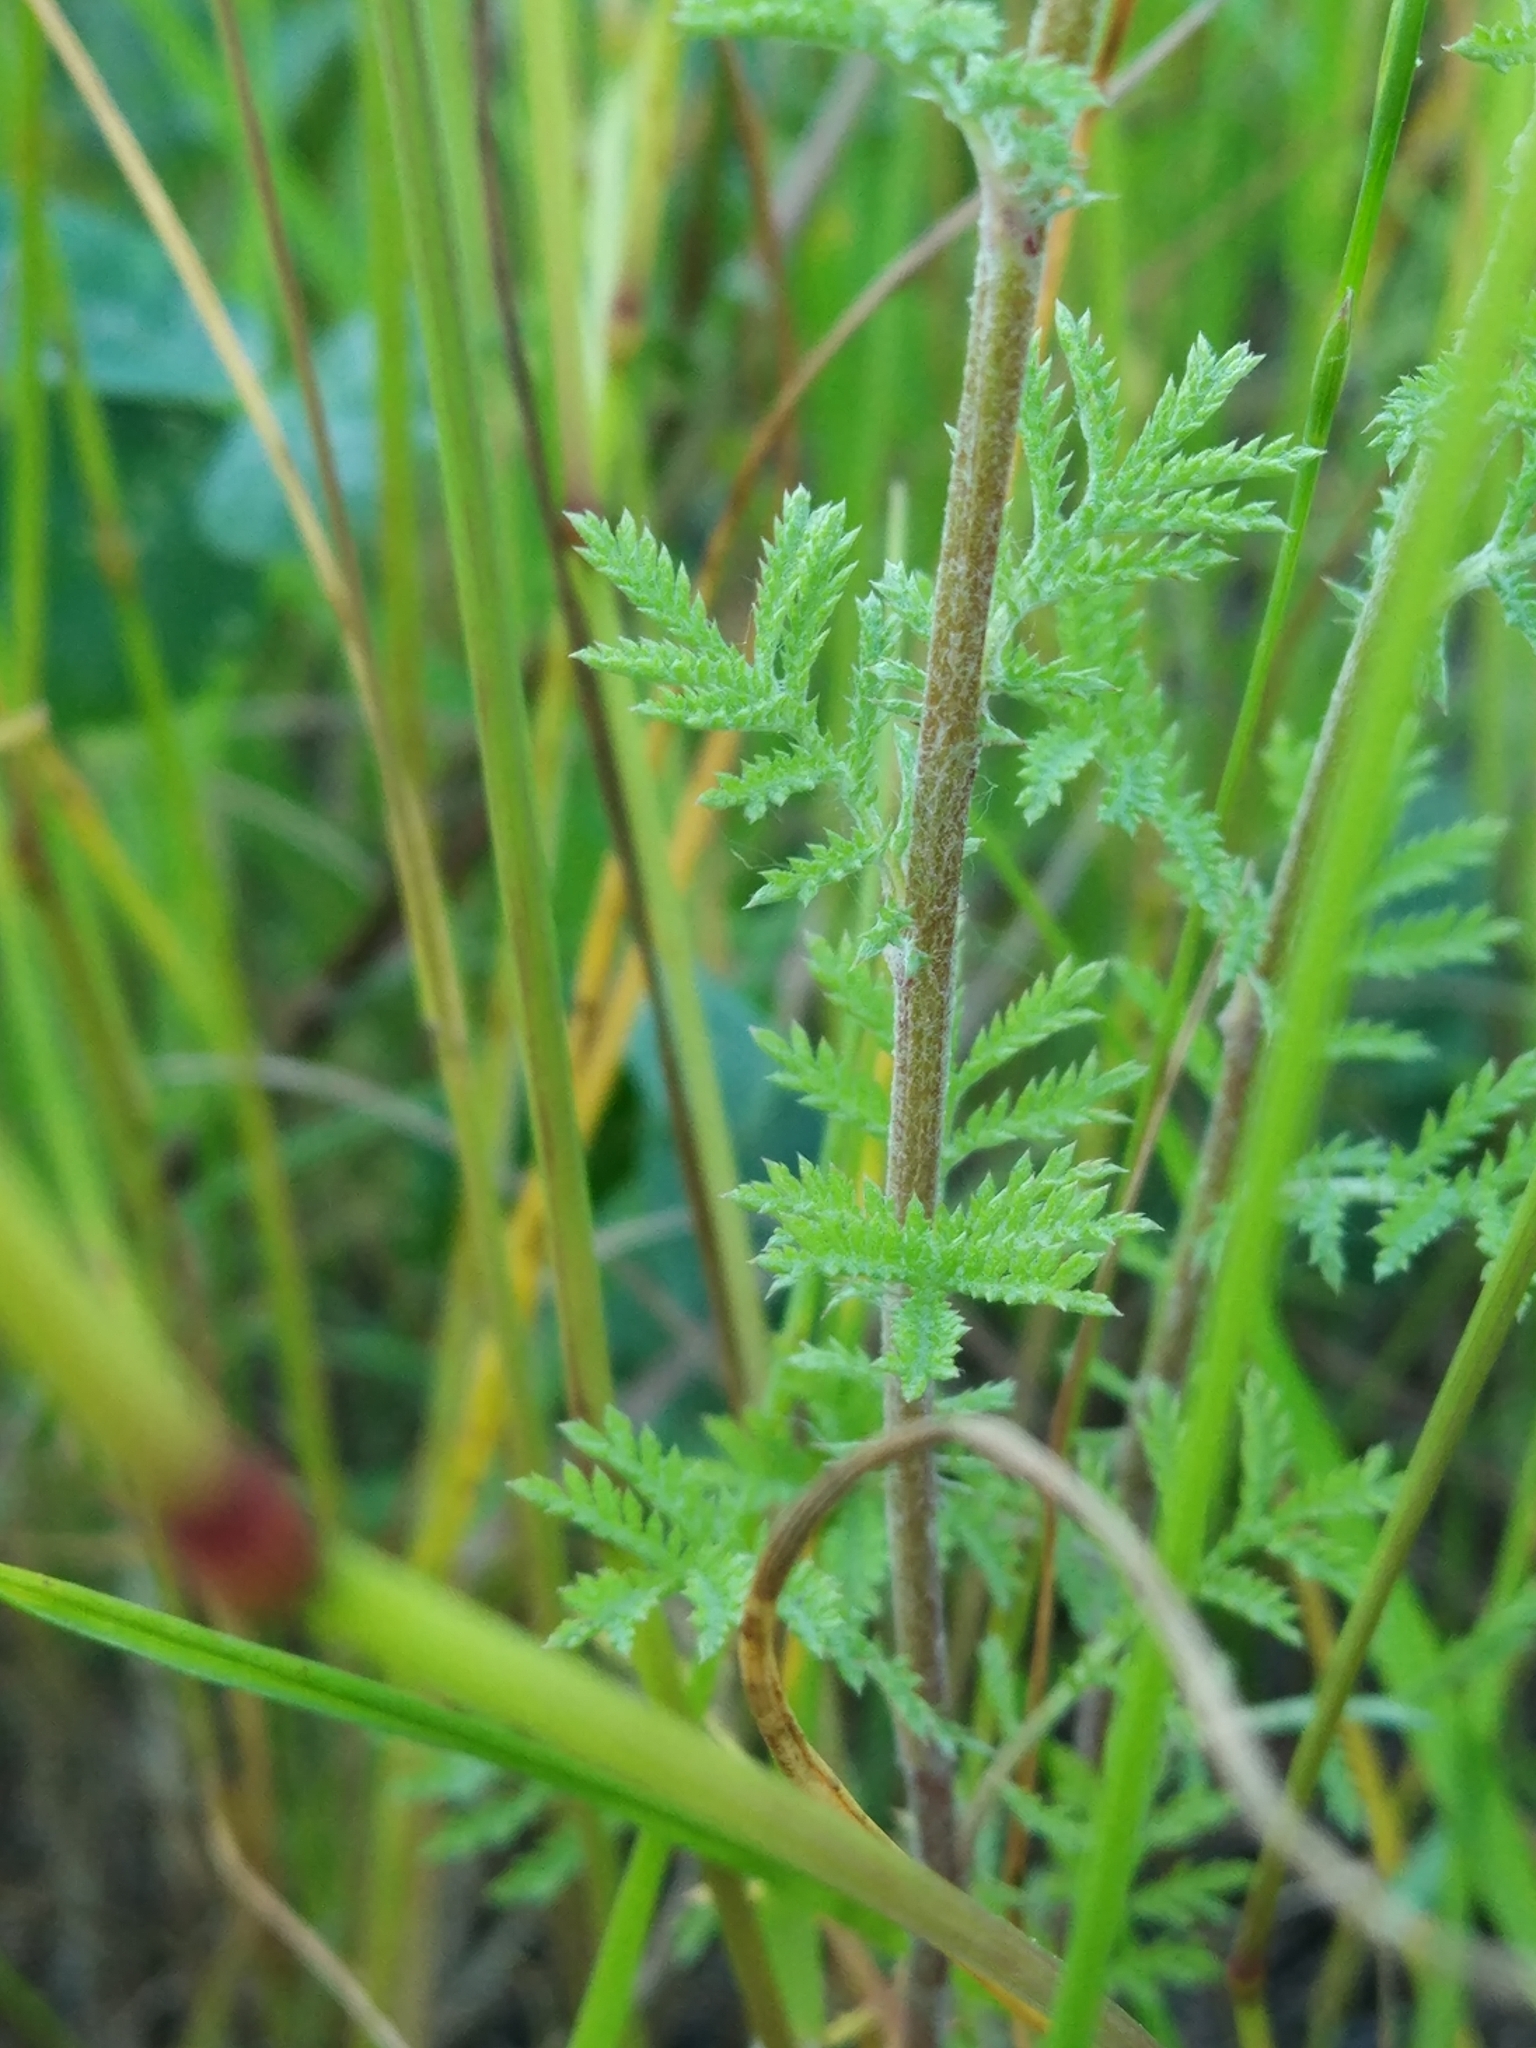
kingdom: Plantae
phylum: Tracheophyta
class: Magnoliopsida
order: Asterales
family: Asteraceae
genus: Cota
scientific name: Cota tinctoria
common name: Golden chamomile
